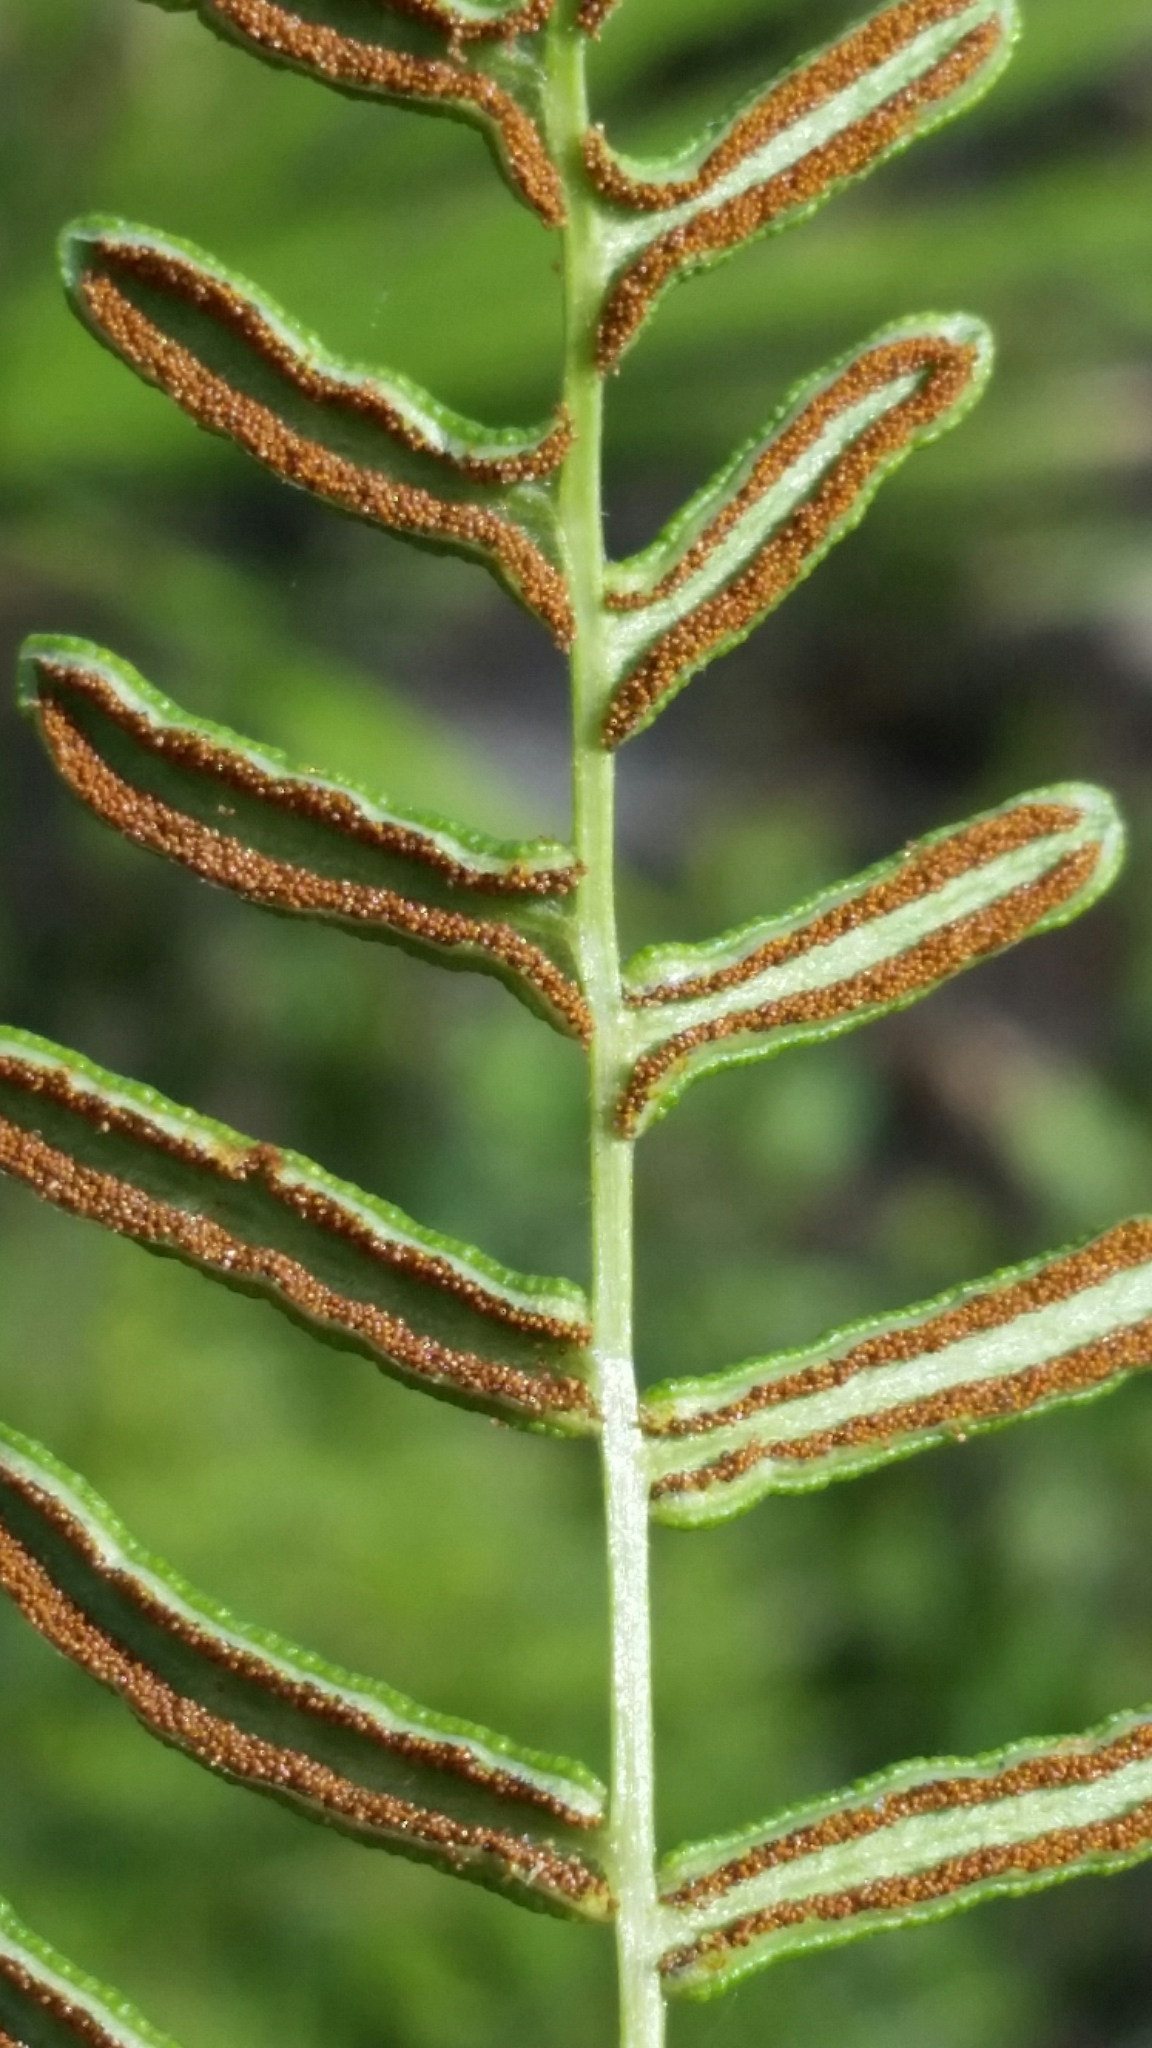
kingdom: Plantae
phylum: Tracheophyta
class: Polypodiopsida
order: Polypodiales
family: Dennstaedtiaceae
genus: Pteridium
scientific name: Pteridium caudatum
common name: Southern bracken fern
